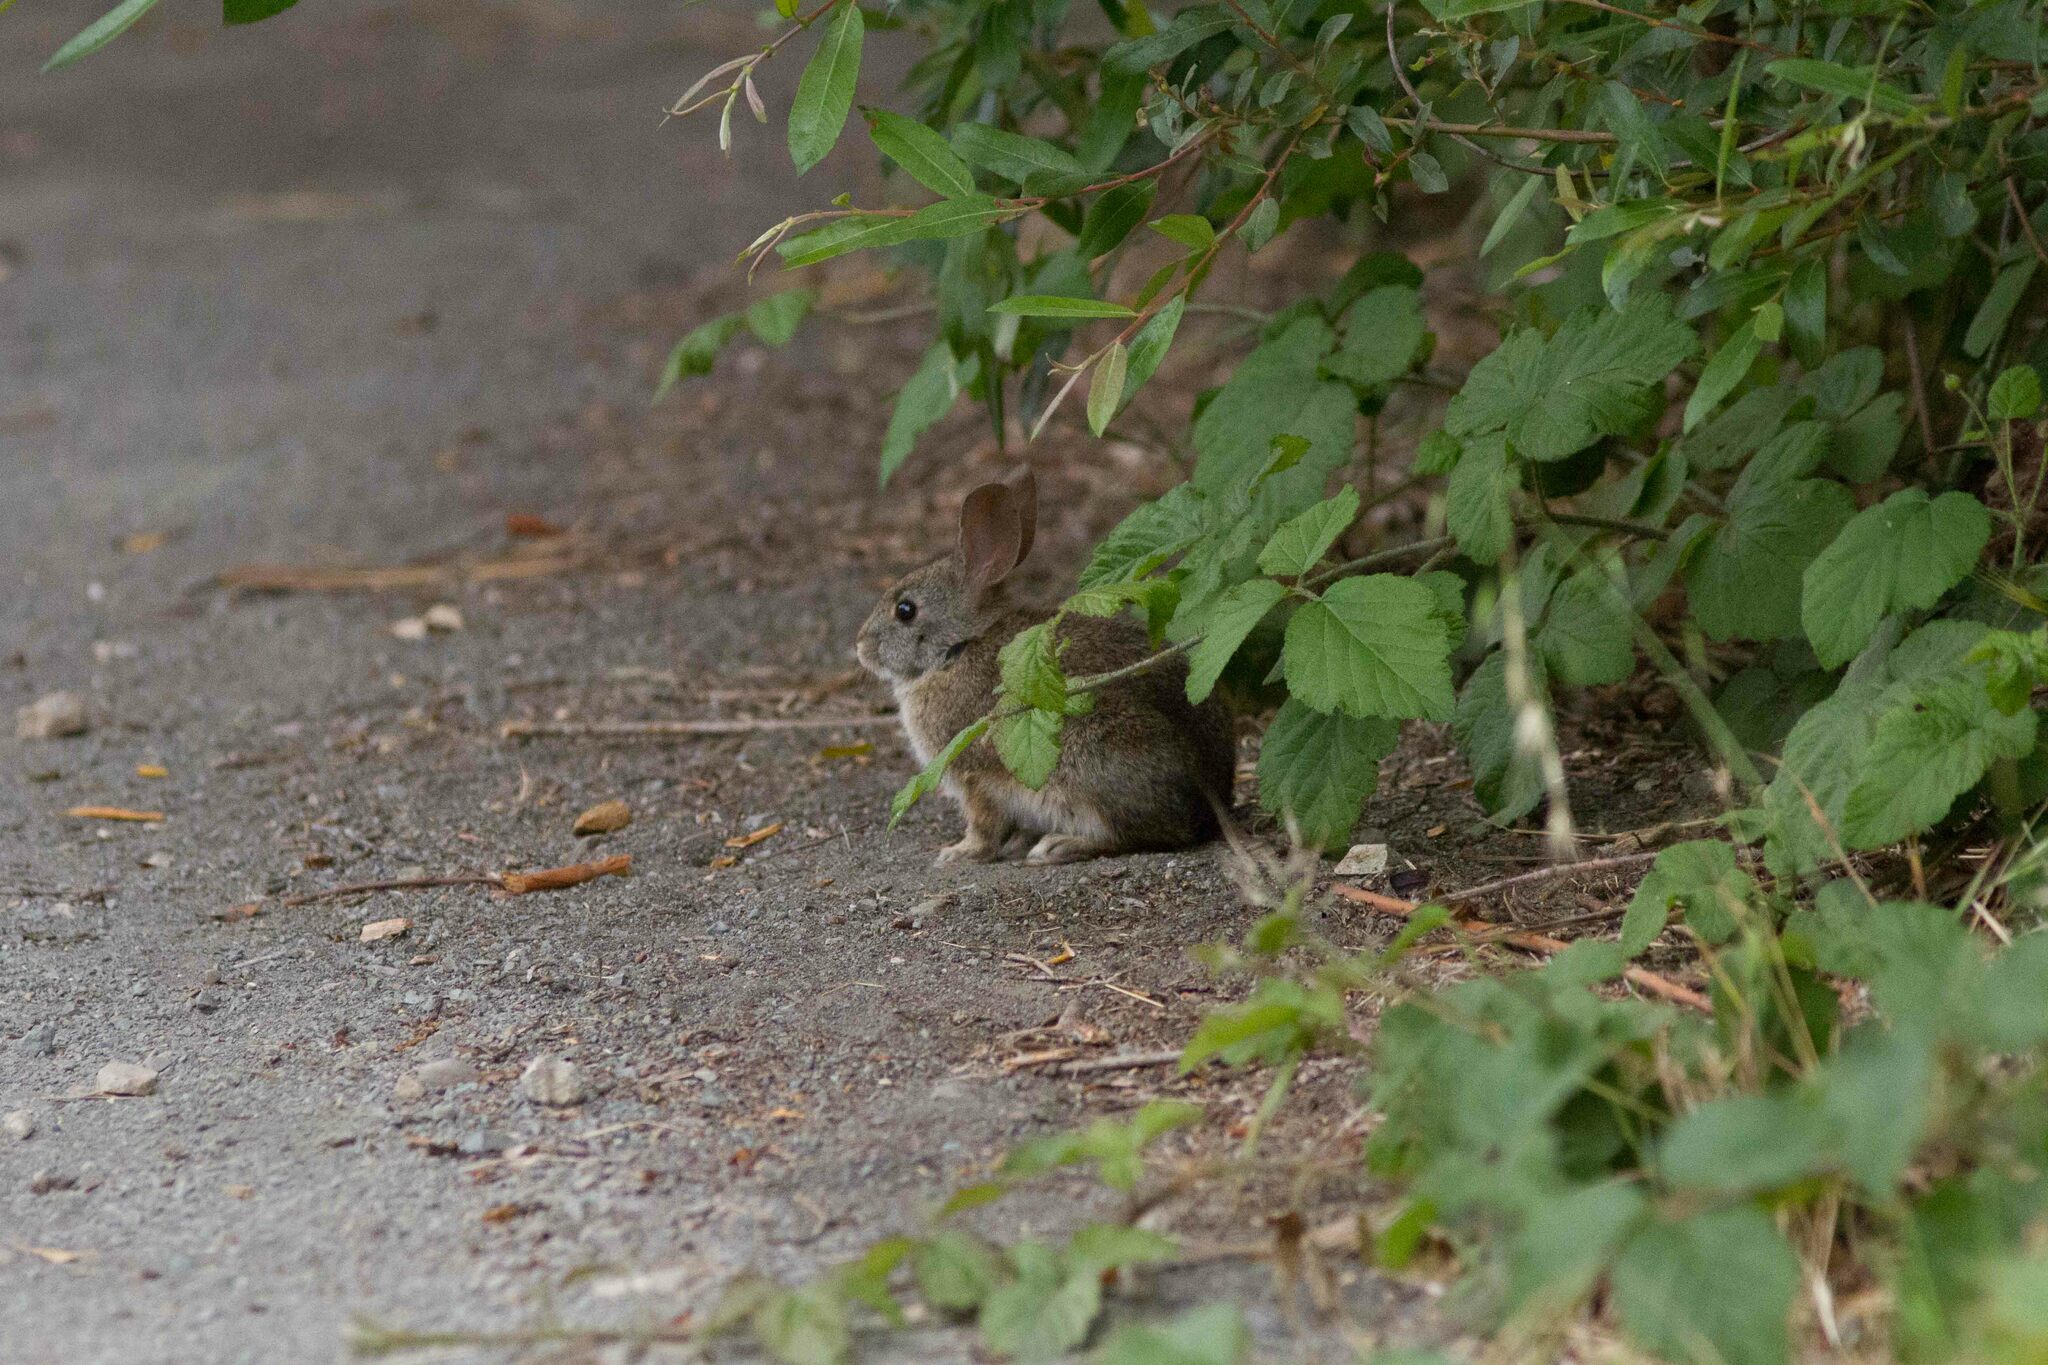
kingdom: Animalia
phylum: Chordata
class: Mammalia
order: Lagomorpha
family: Leporidae
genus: Sylvilagus
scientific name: Sylvilagus bachmani
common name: Brush rabbit
